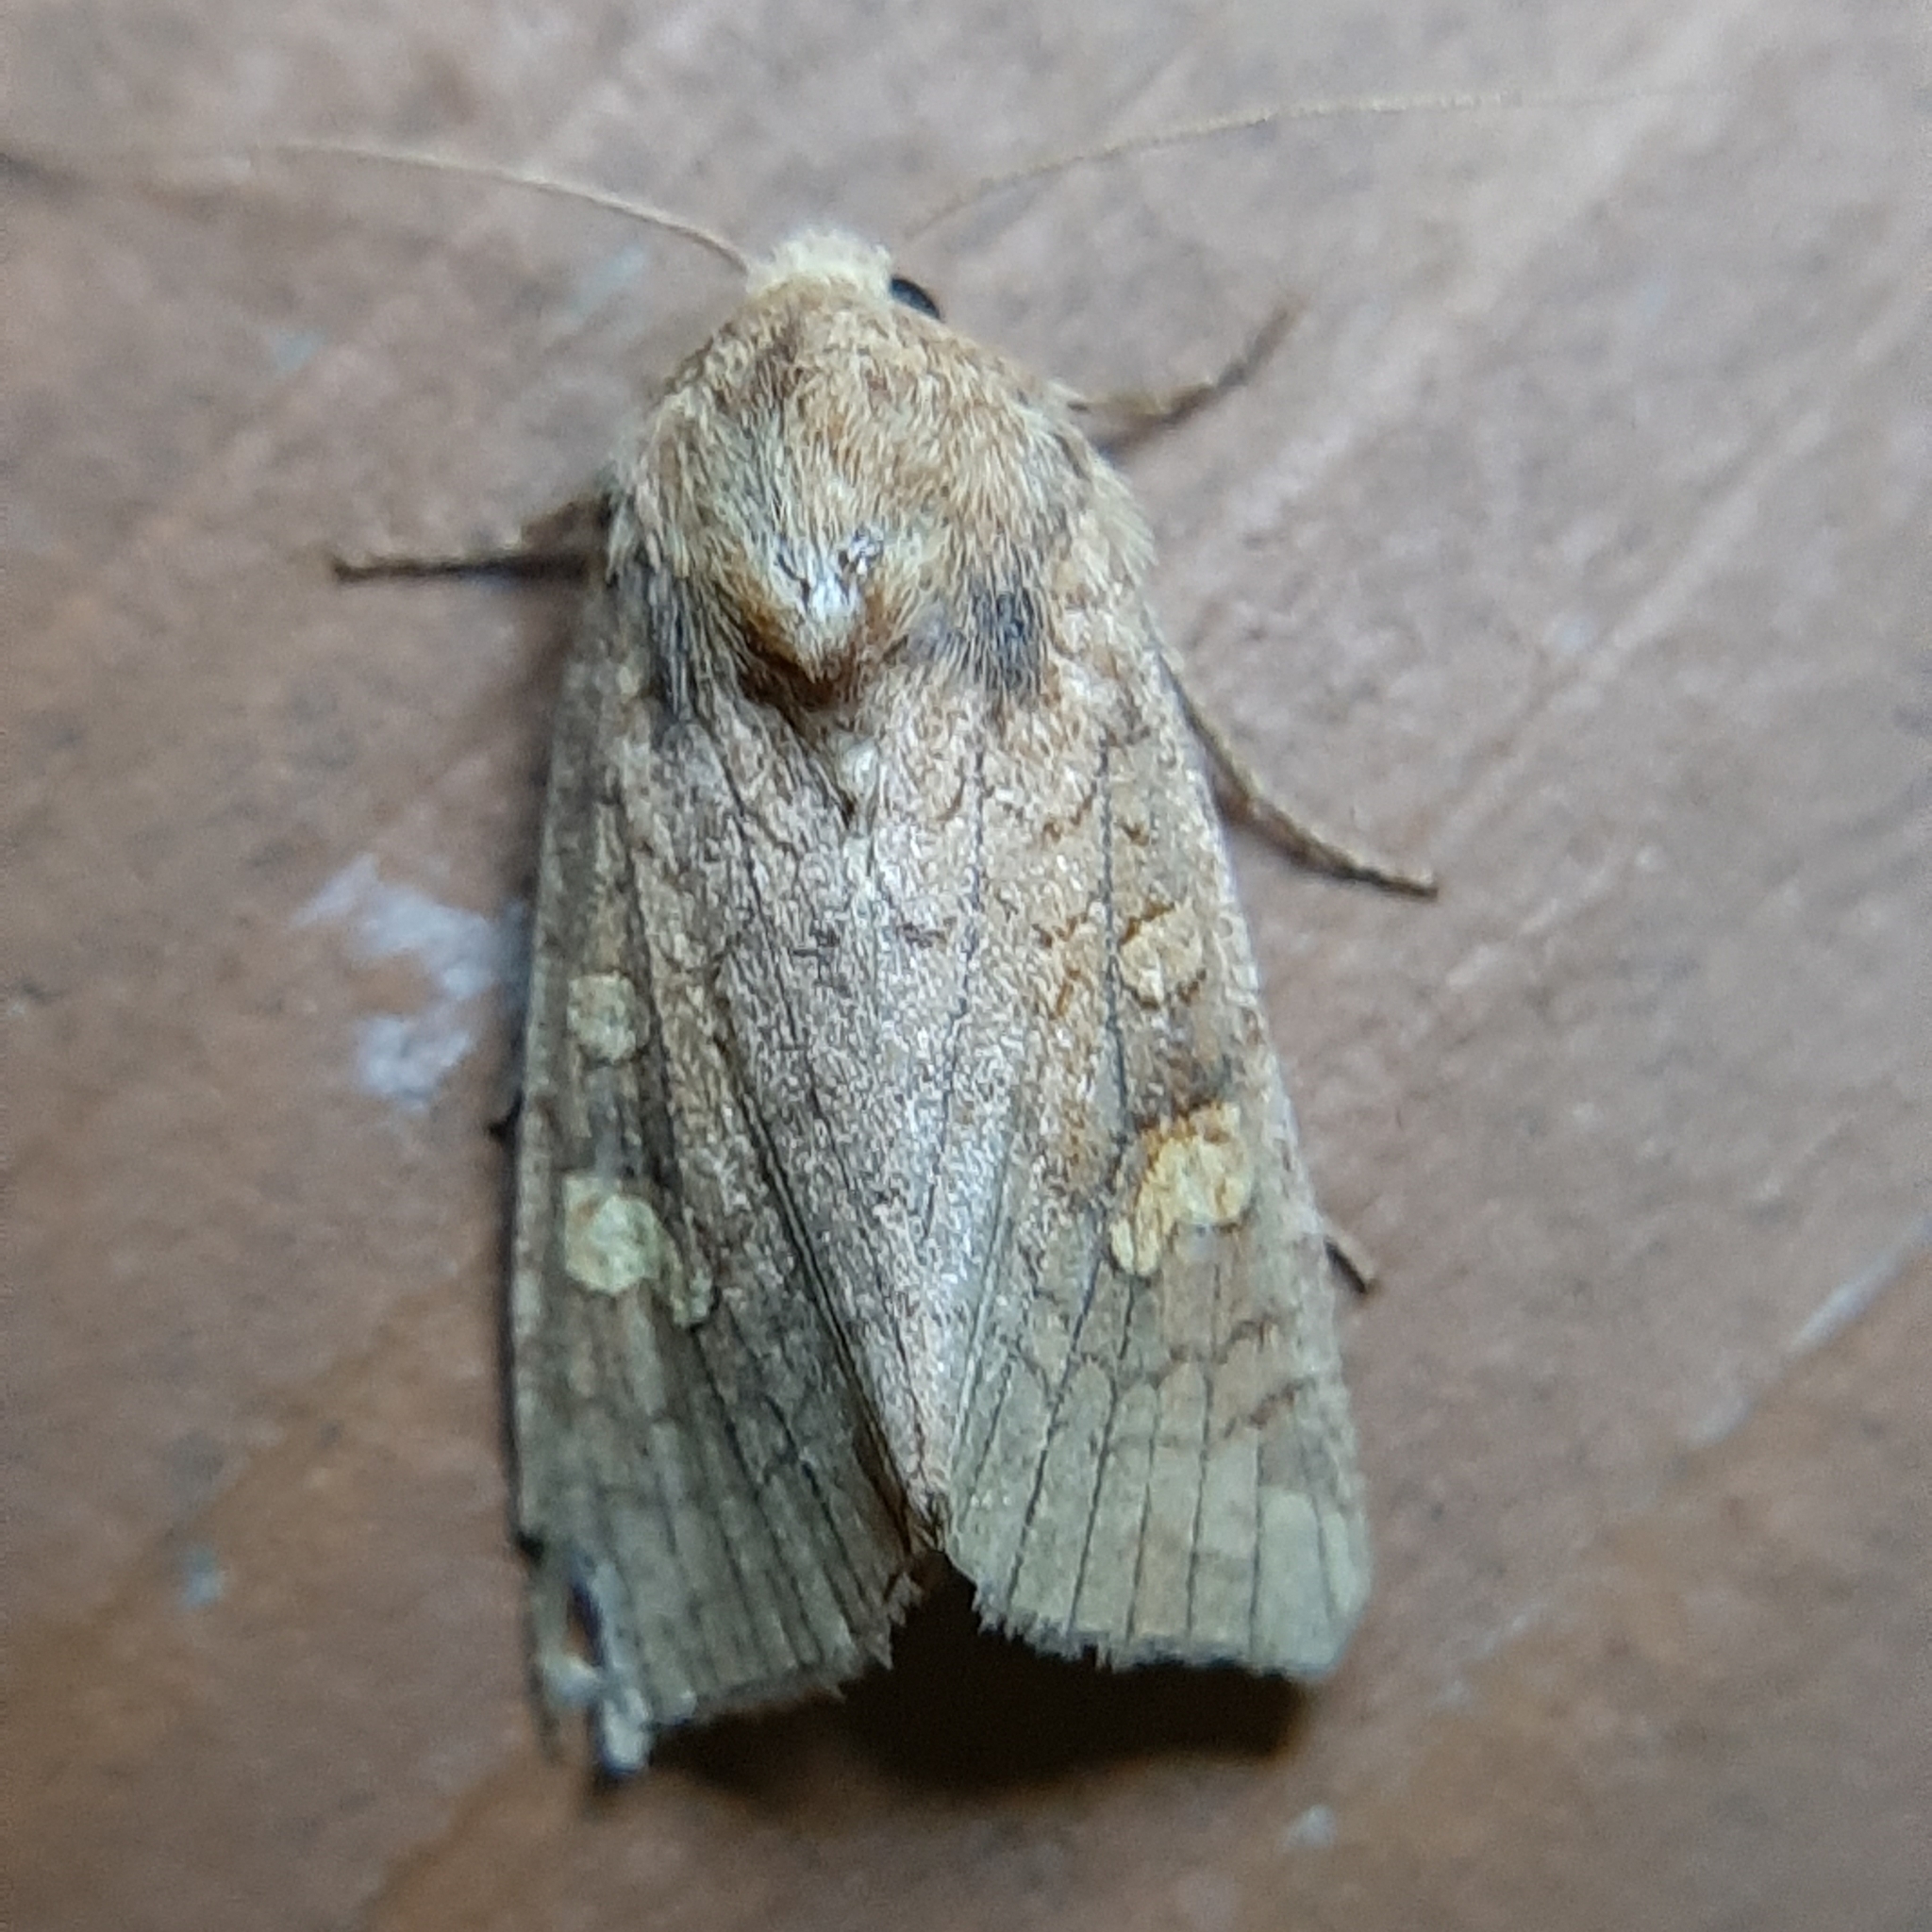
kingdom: Animalia
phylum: Arthropoda
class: Insecta
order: Lepidoptera
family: Noctuidae
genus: Amphipoea
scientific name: Amphipoea americana
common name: American ear moth
